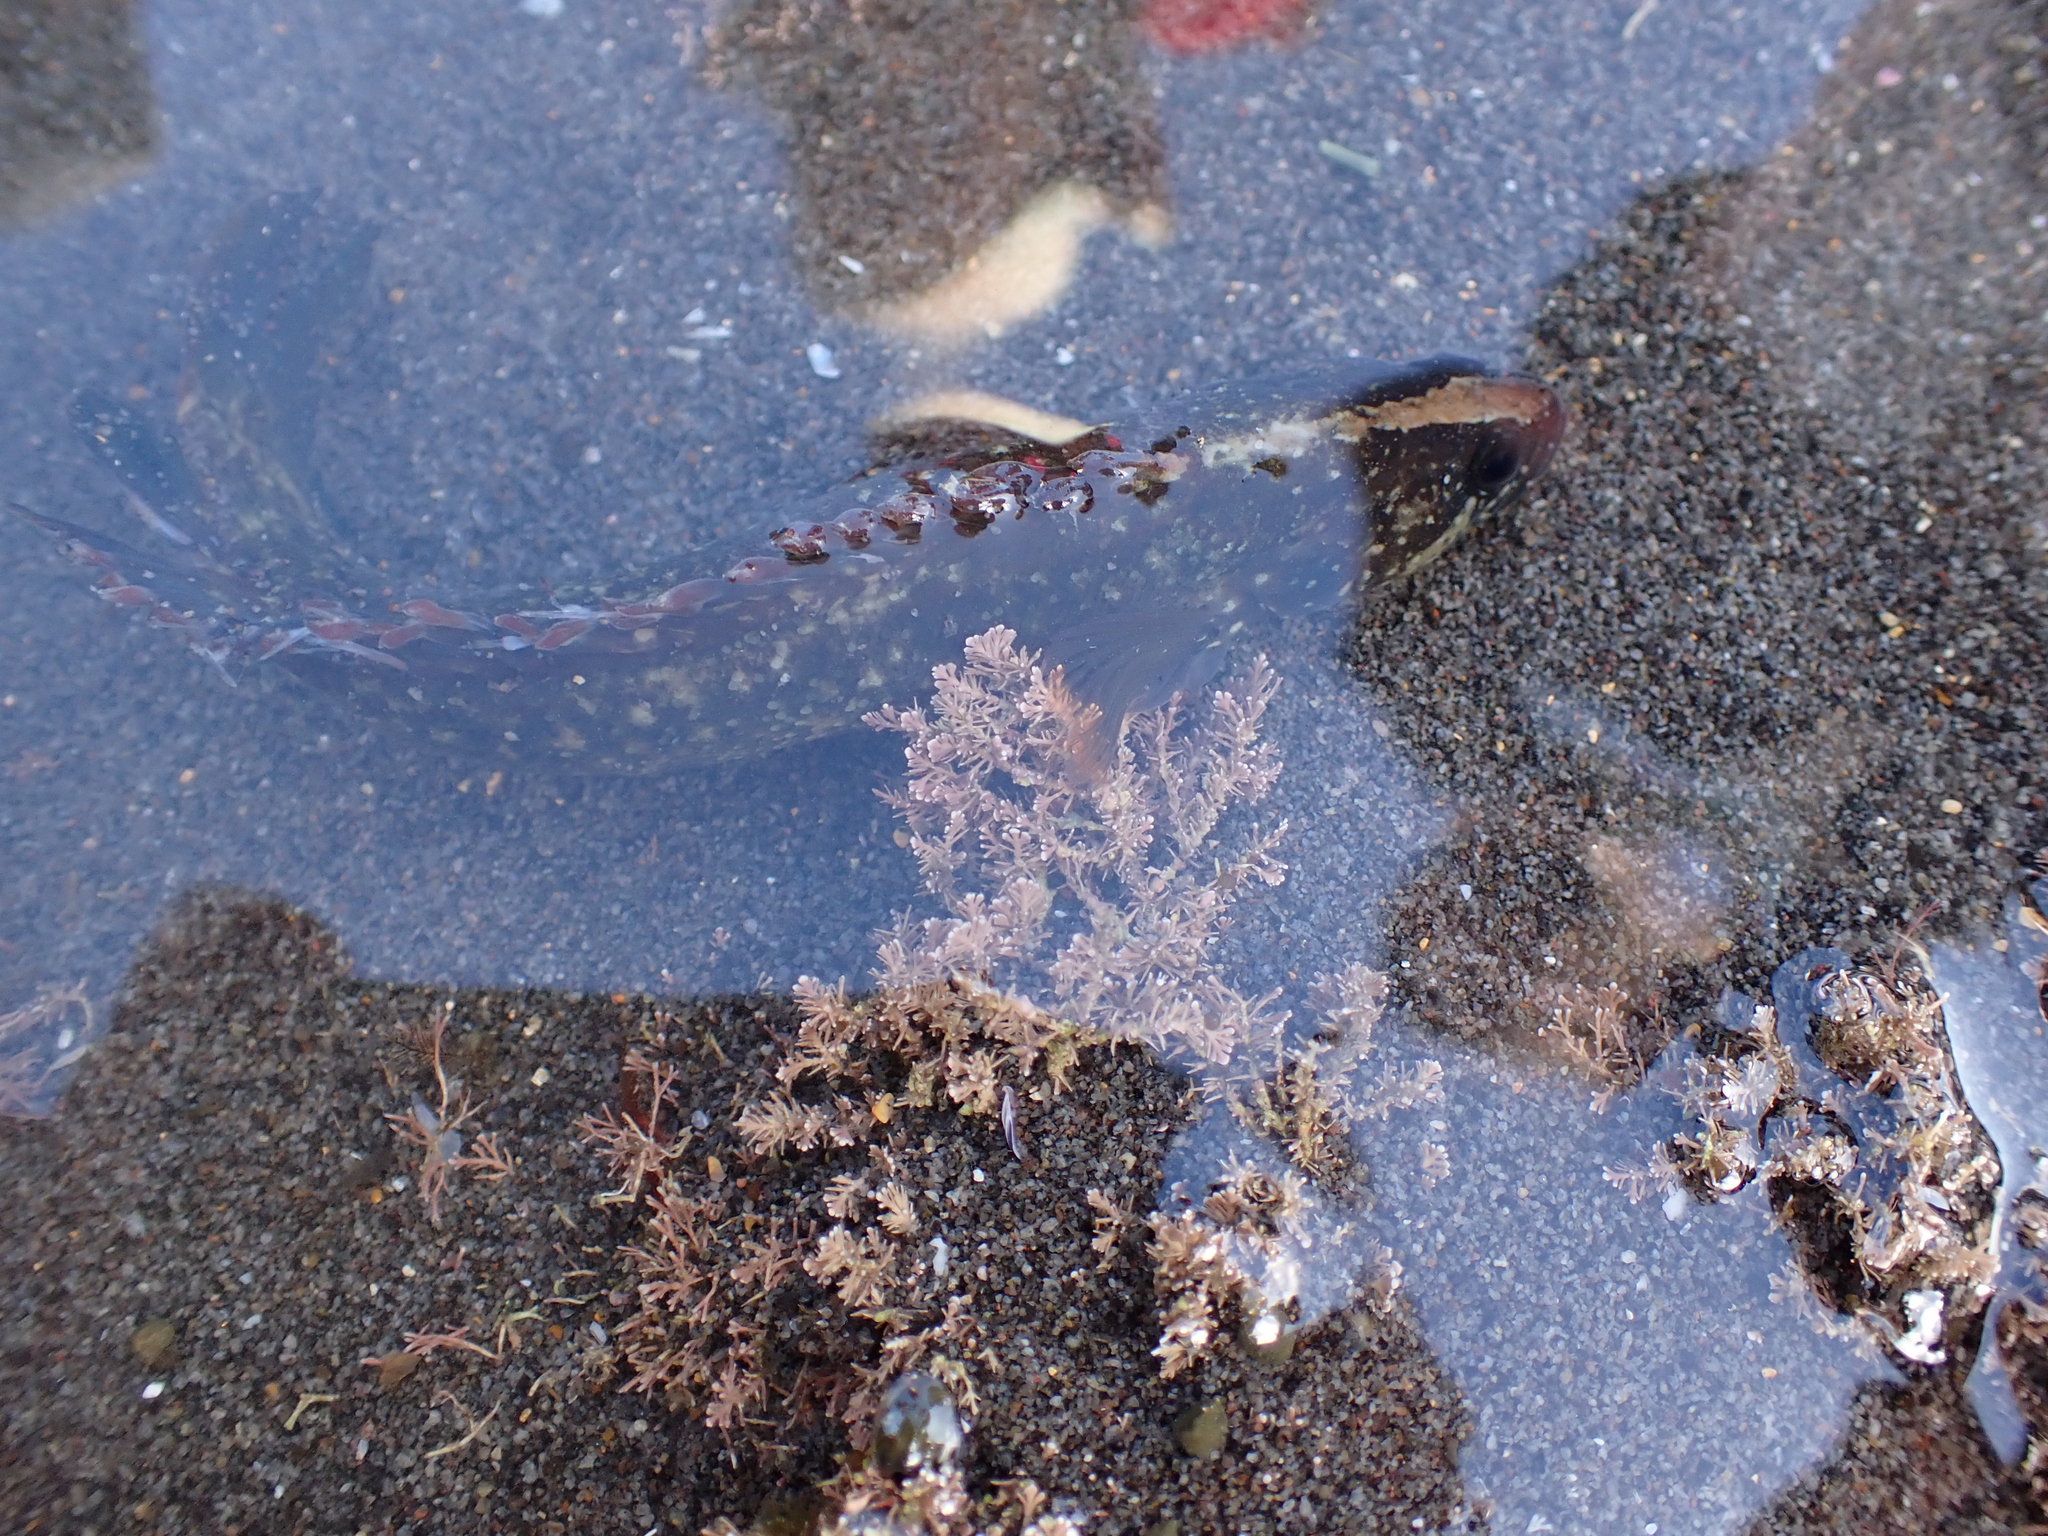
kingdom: Animalia
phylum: Chordata
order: Perciformes
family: Plesiopidae
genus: Acanthoclinus
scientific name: Acanthoclinus fuscus
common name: Olive rockfish
